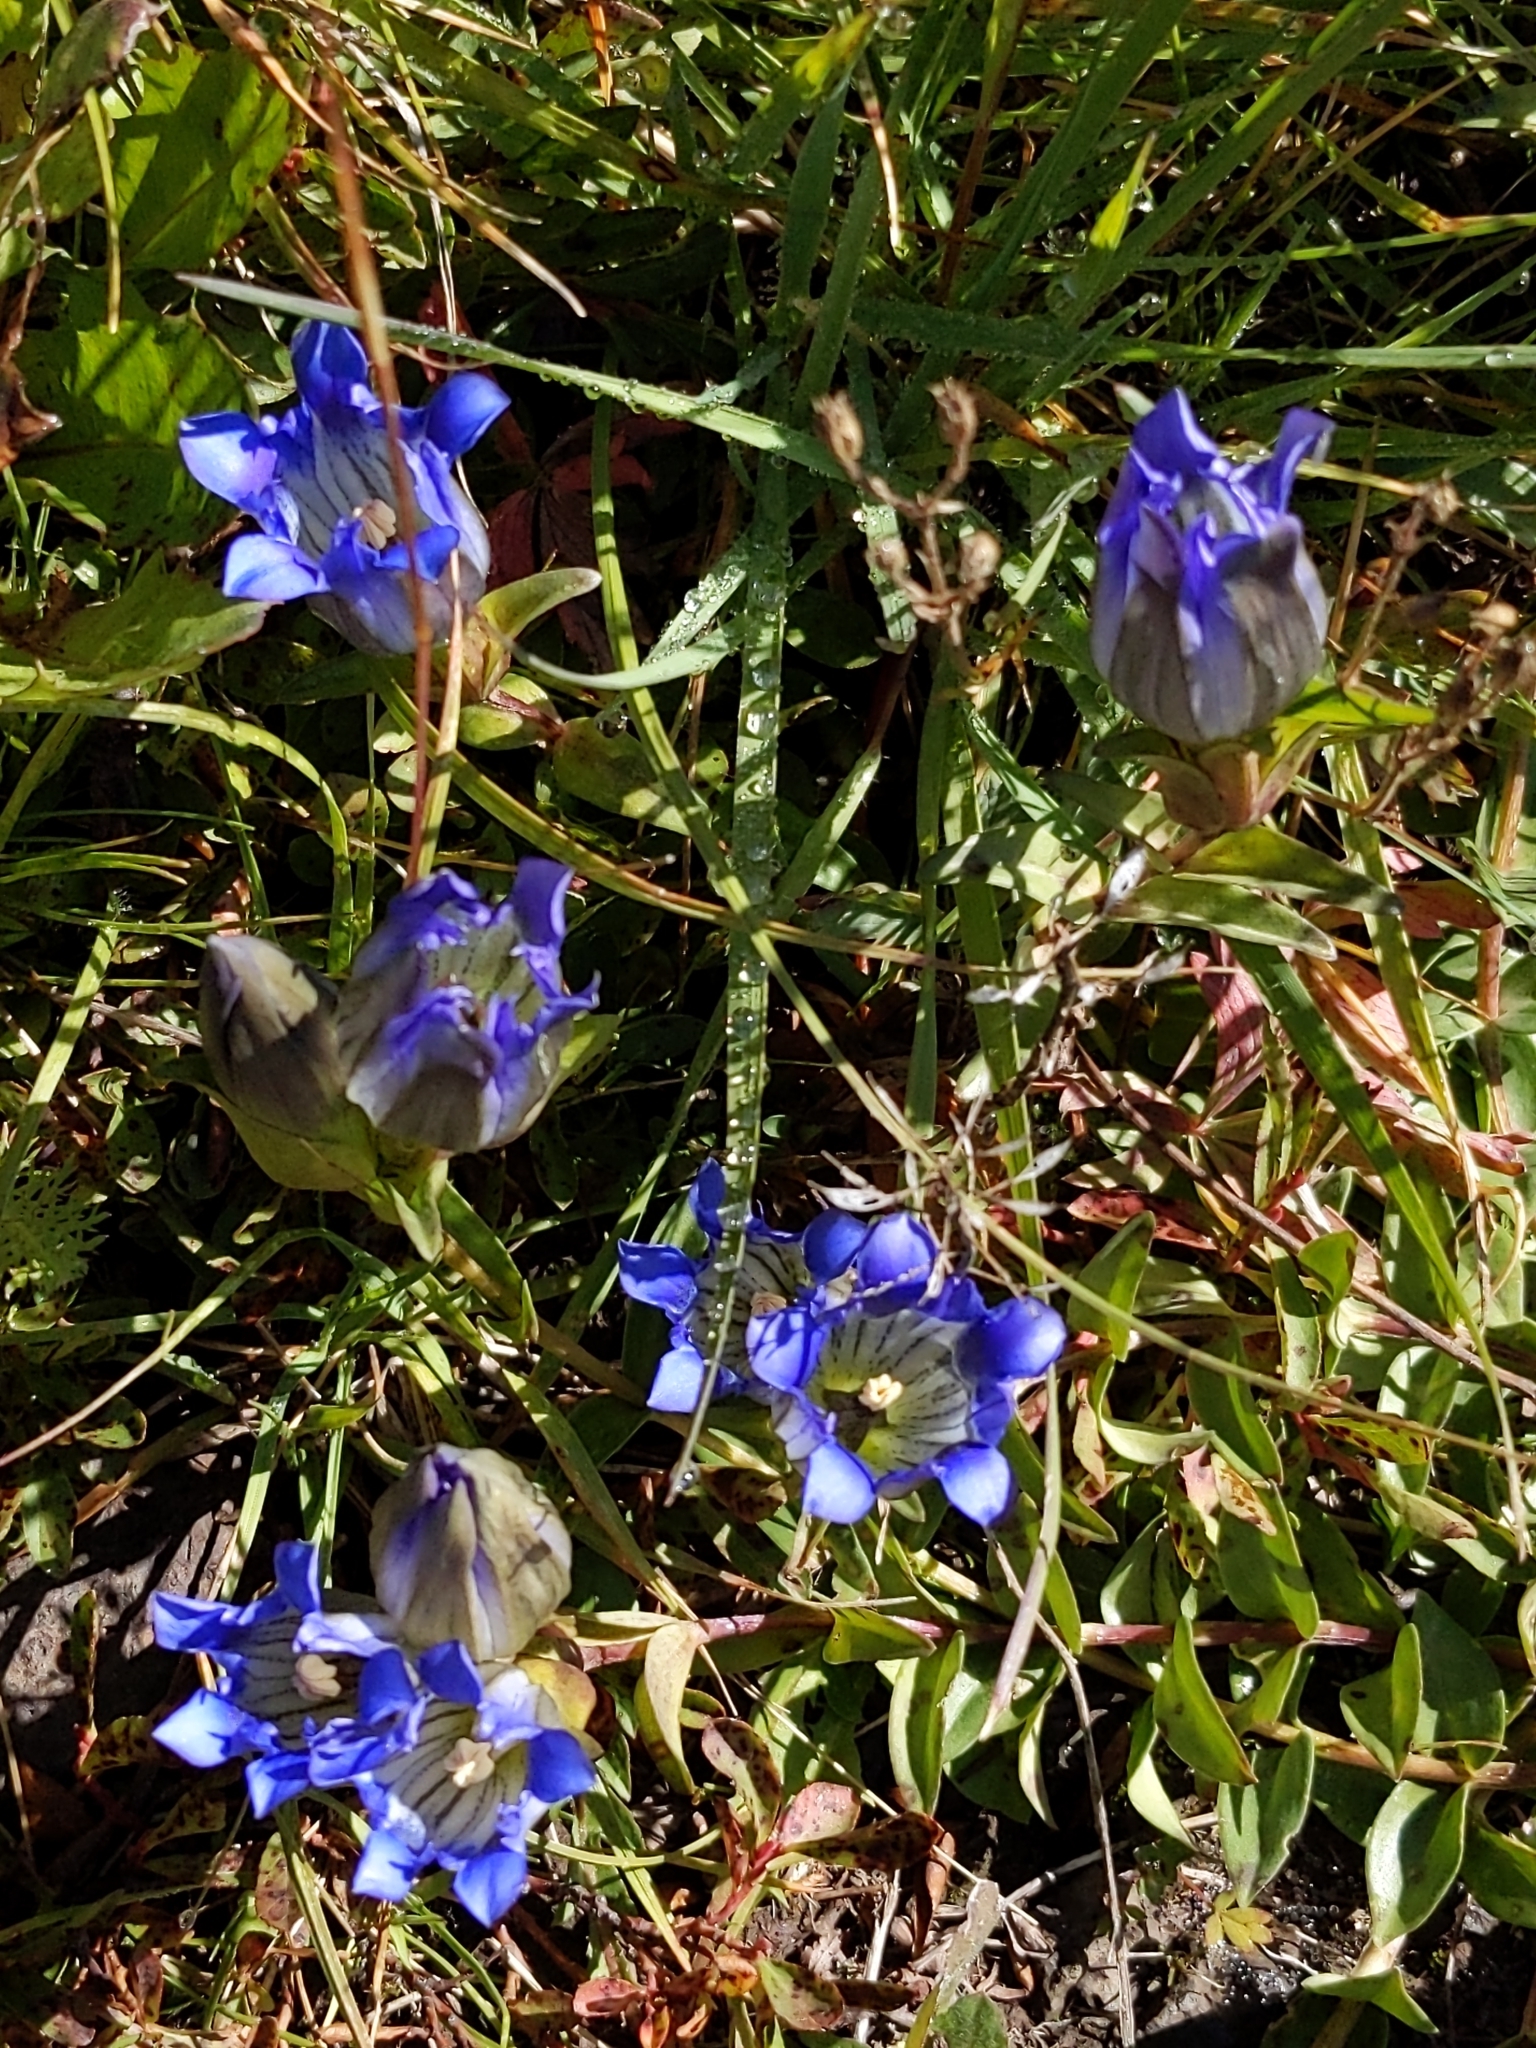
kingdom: Plantae
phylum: Tracheophyta
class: Magnoliopsida
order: Gentianales
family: Gentianaceae
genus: Gentiana
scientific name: Gentiana parryi
